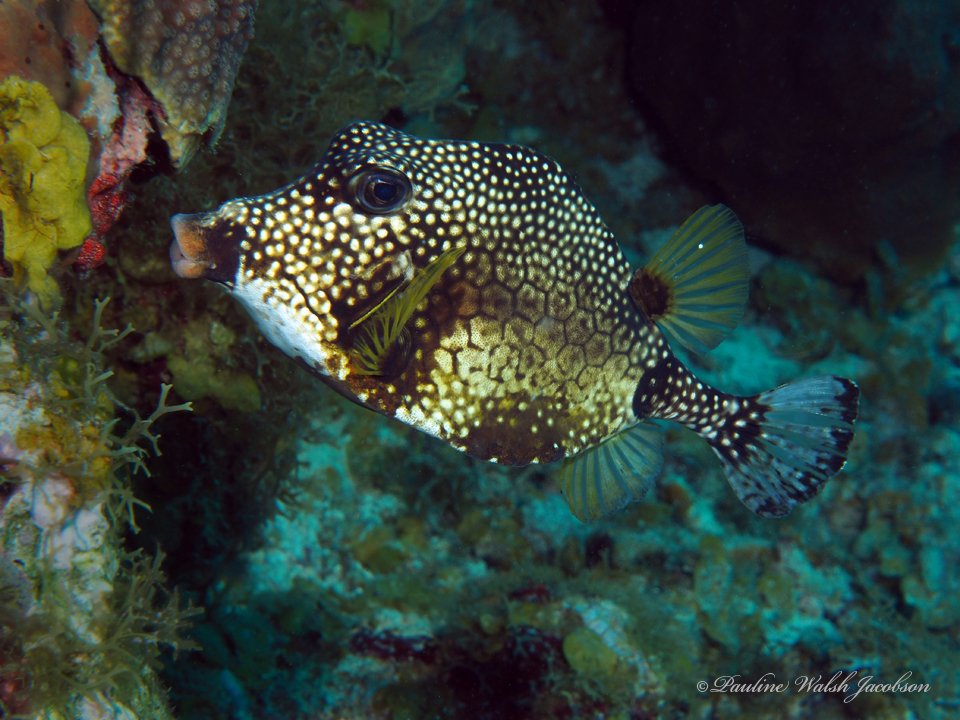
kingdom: Animalia
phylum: Chordata
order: Tetraodontiformes
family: Ostraciidae
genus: Lactophrys
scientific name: Lactophrys triqueter
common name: Smooth trunkfish
